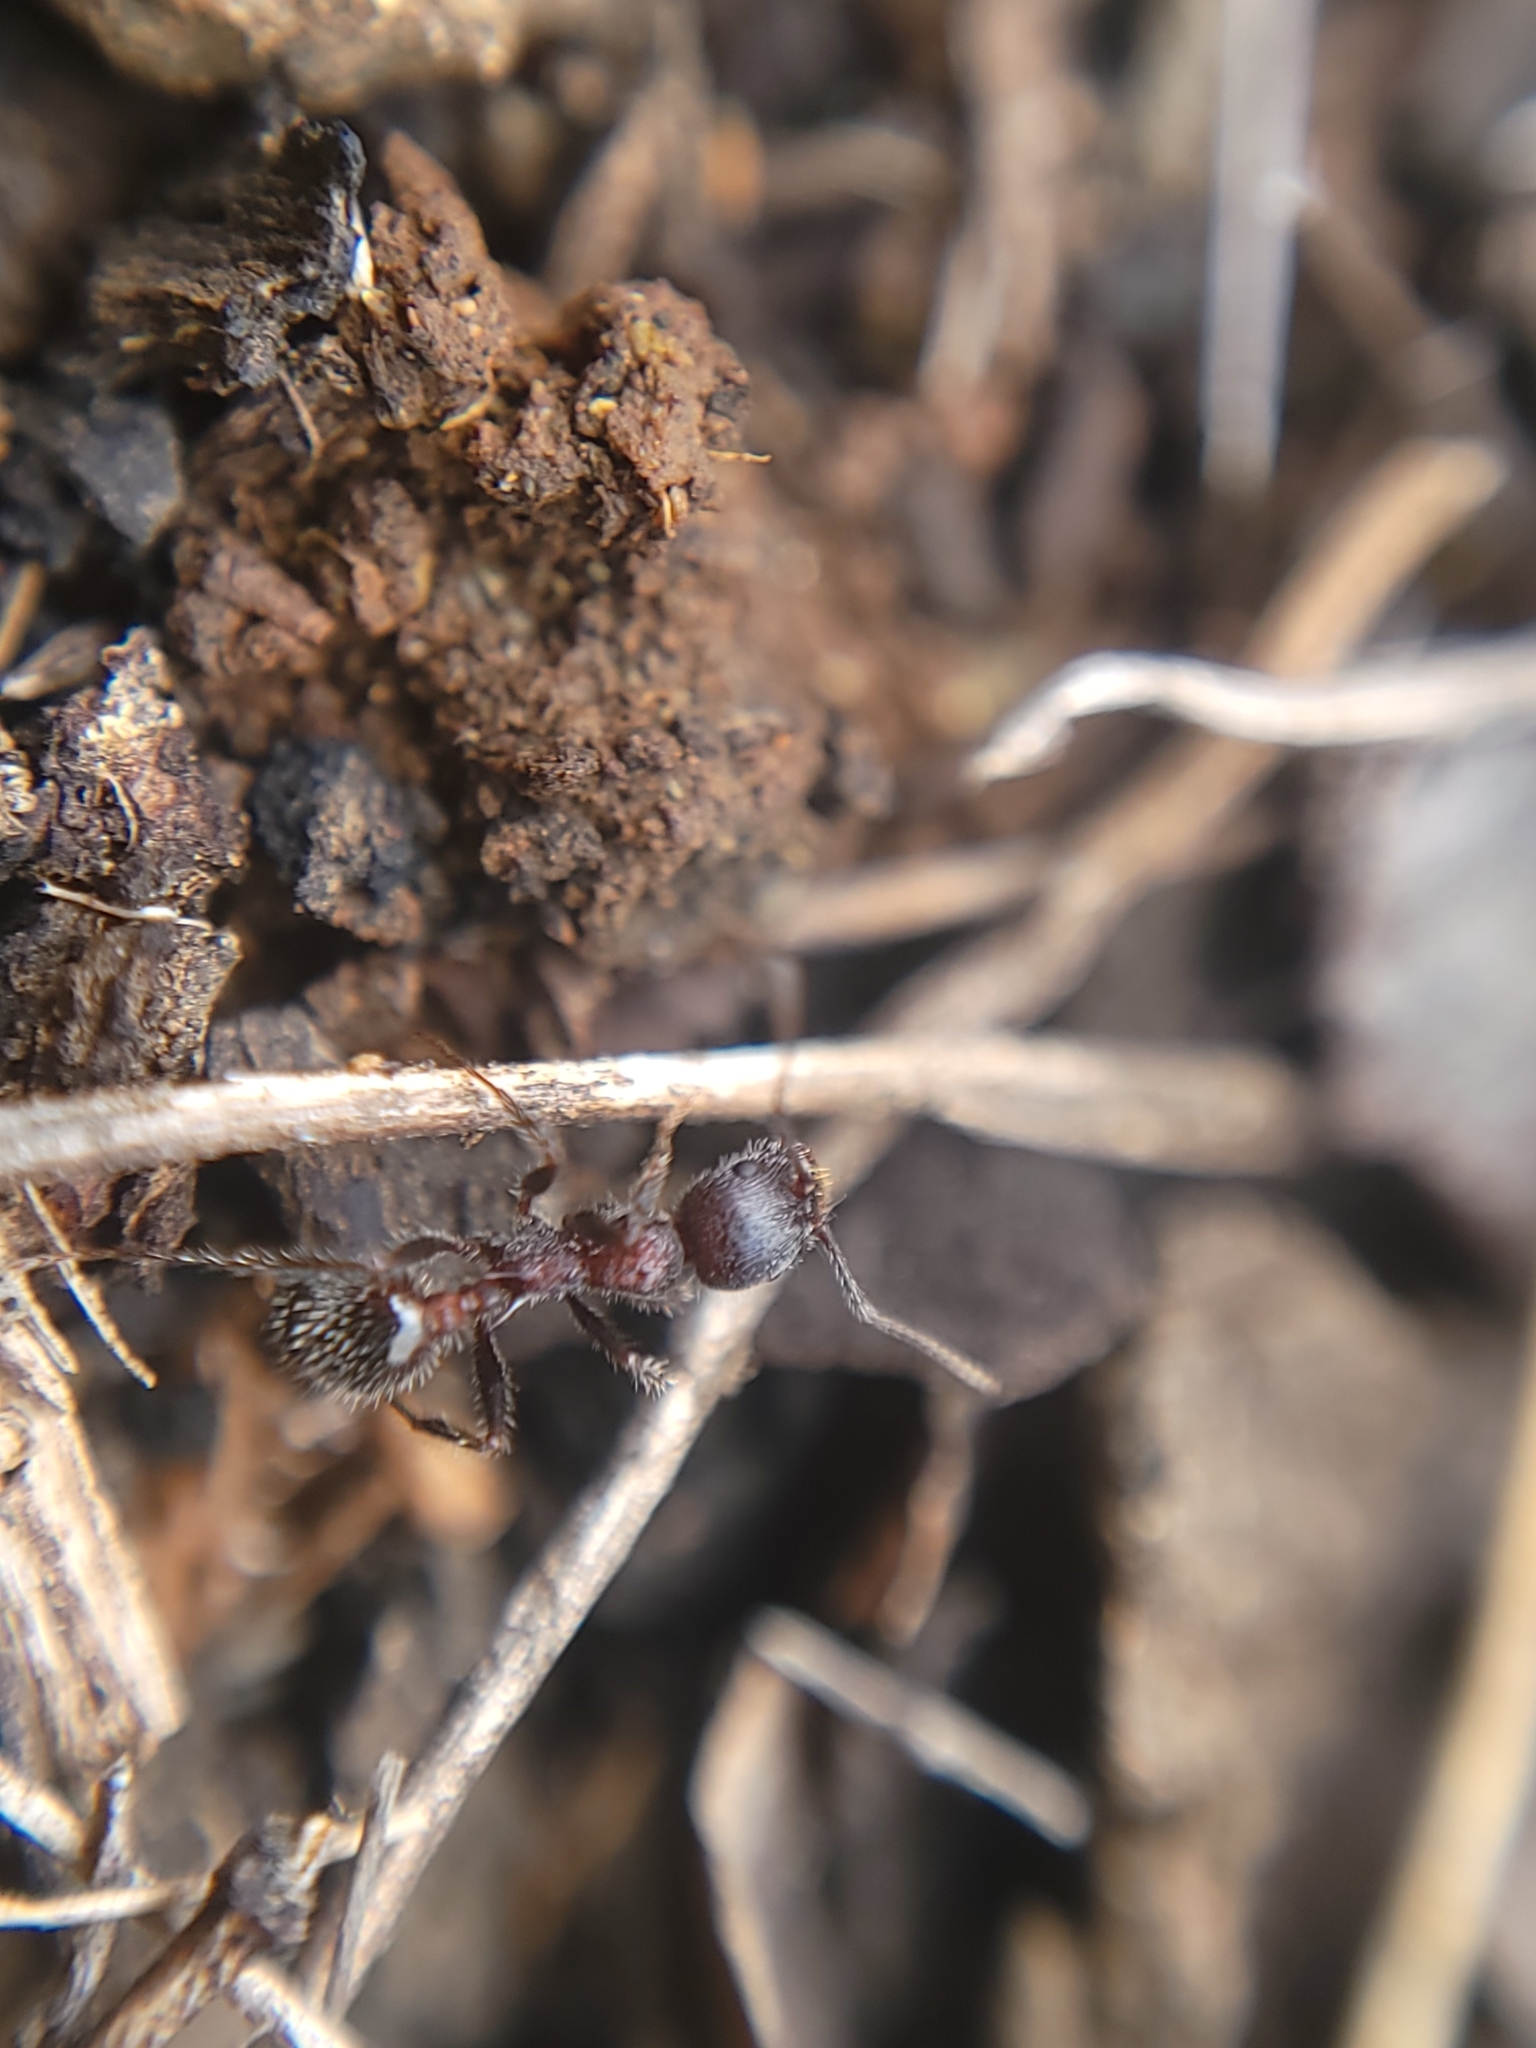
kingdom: Animalia
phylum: Arthropoda
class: Insecta
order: Hymenoptera
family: Formicidae
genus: Veromessor
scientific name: Veromessor andrei
